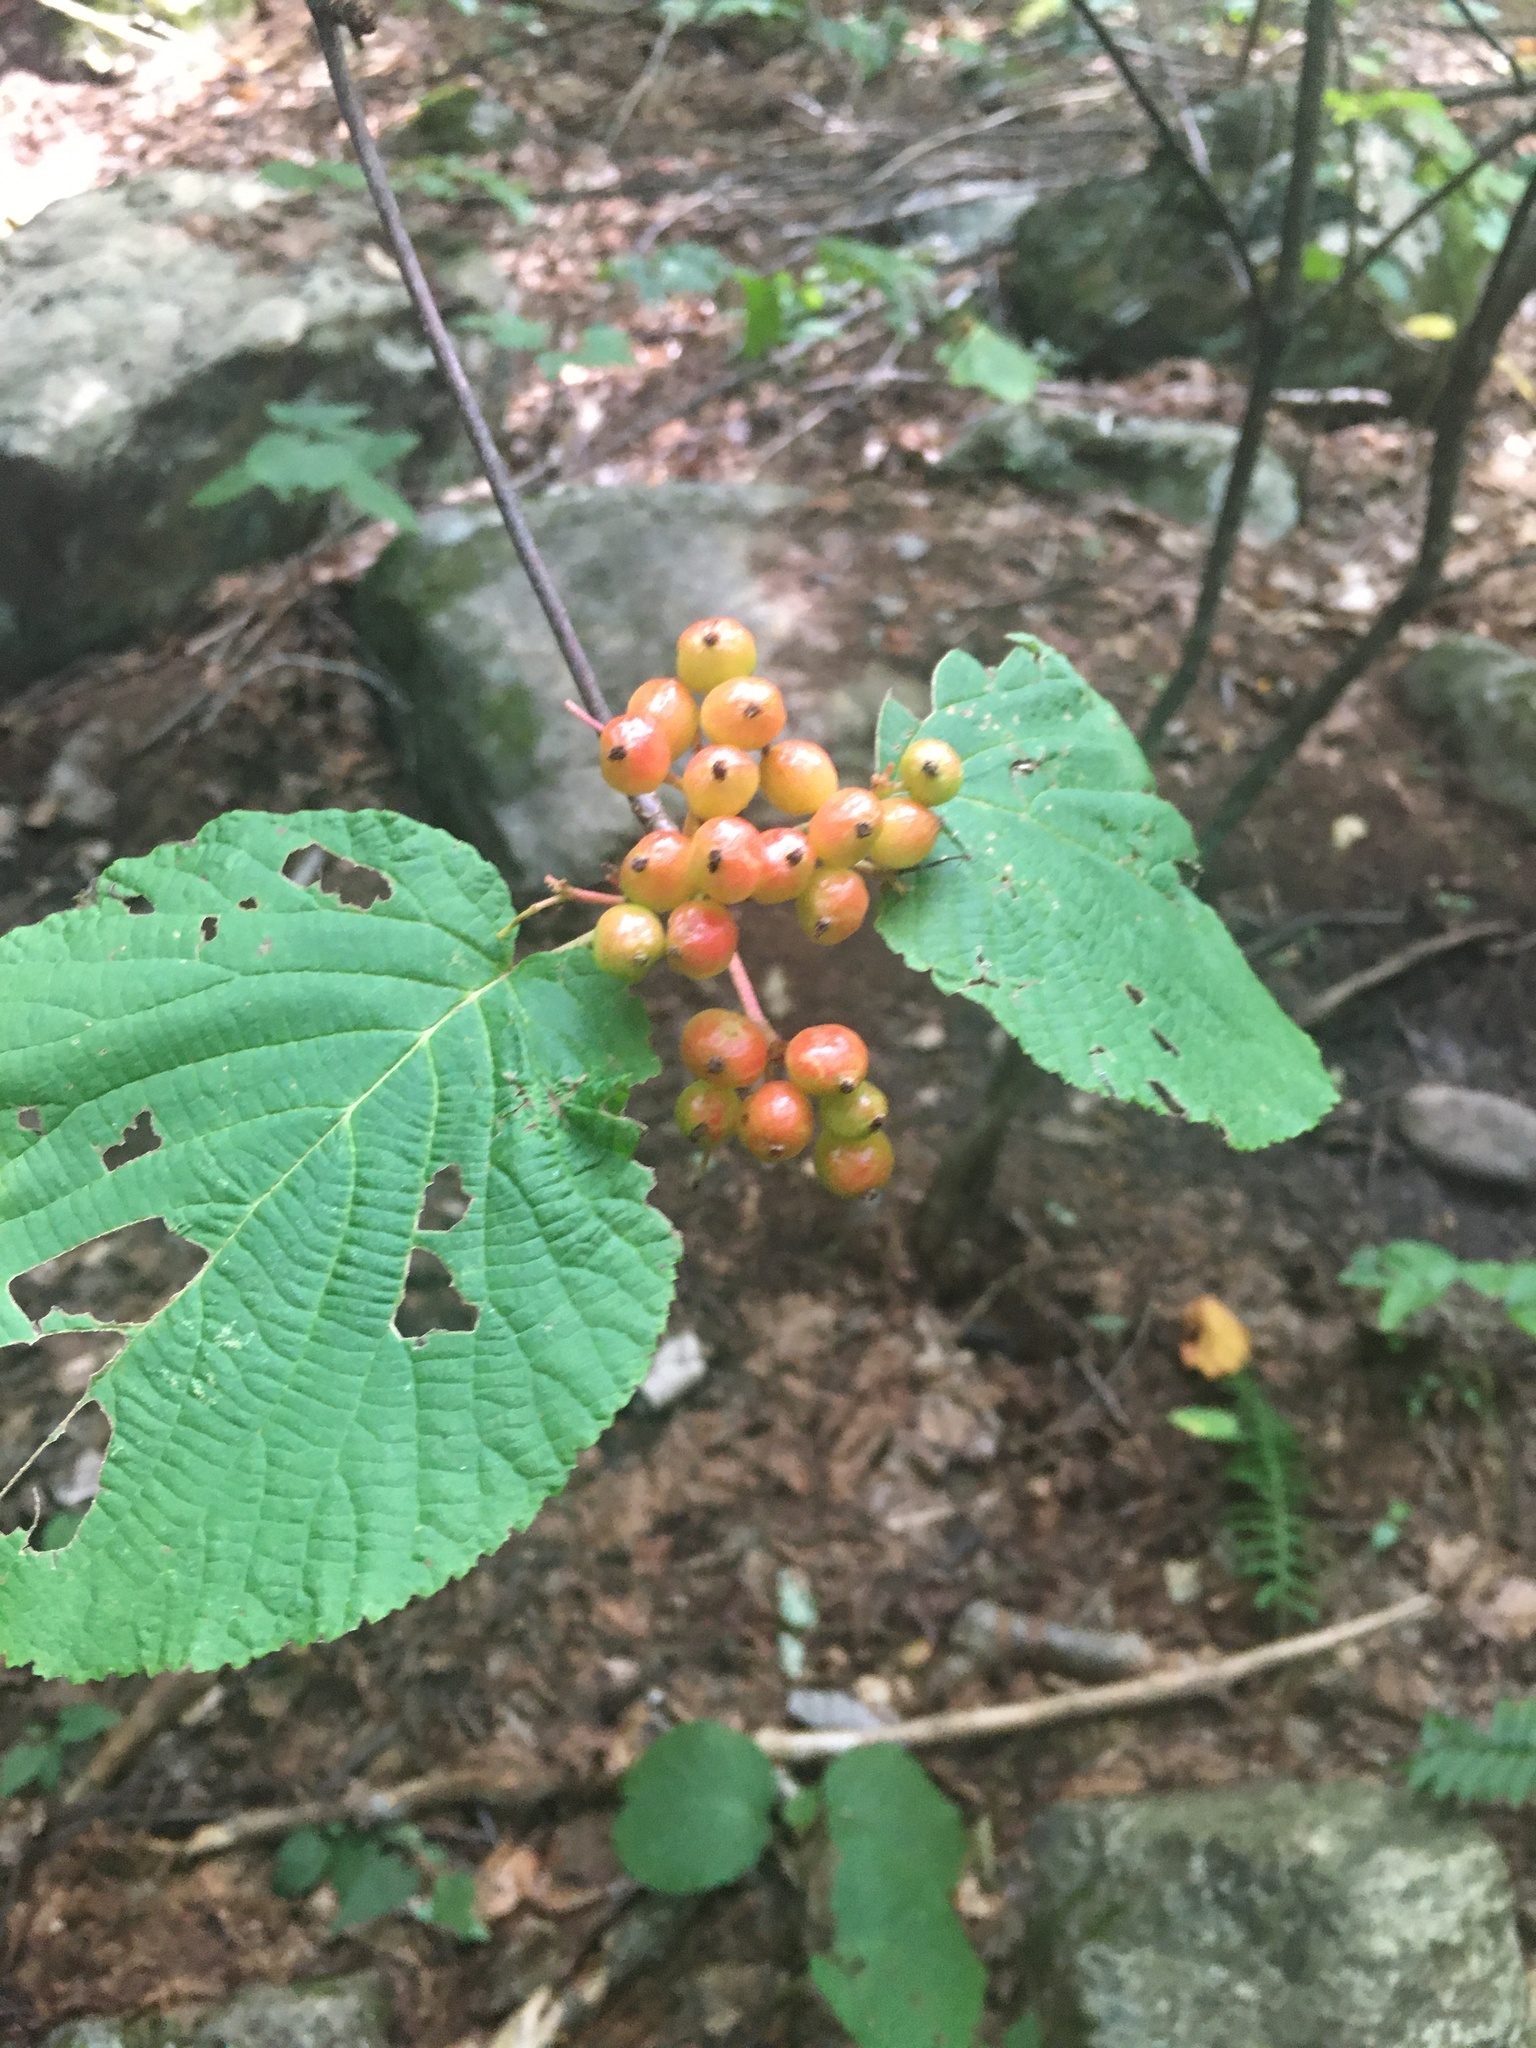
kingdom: Plantae
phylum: Tracheophyta
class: Magnoliopsida
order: Dipsacales
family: Viburnaceae
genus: Viburnum
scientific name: Viburnum lantanoides
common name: Hobblebush
